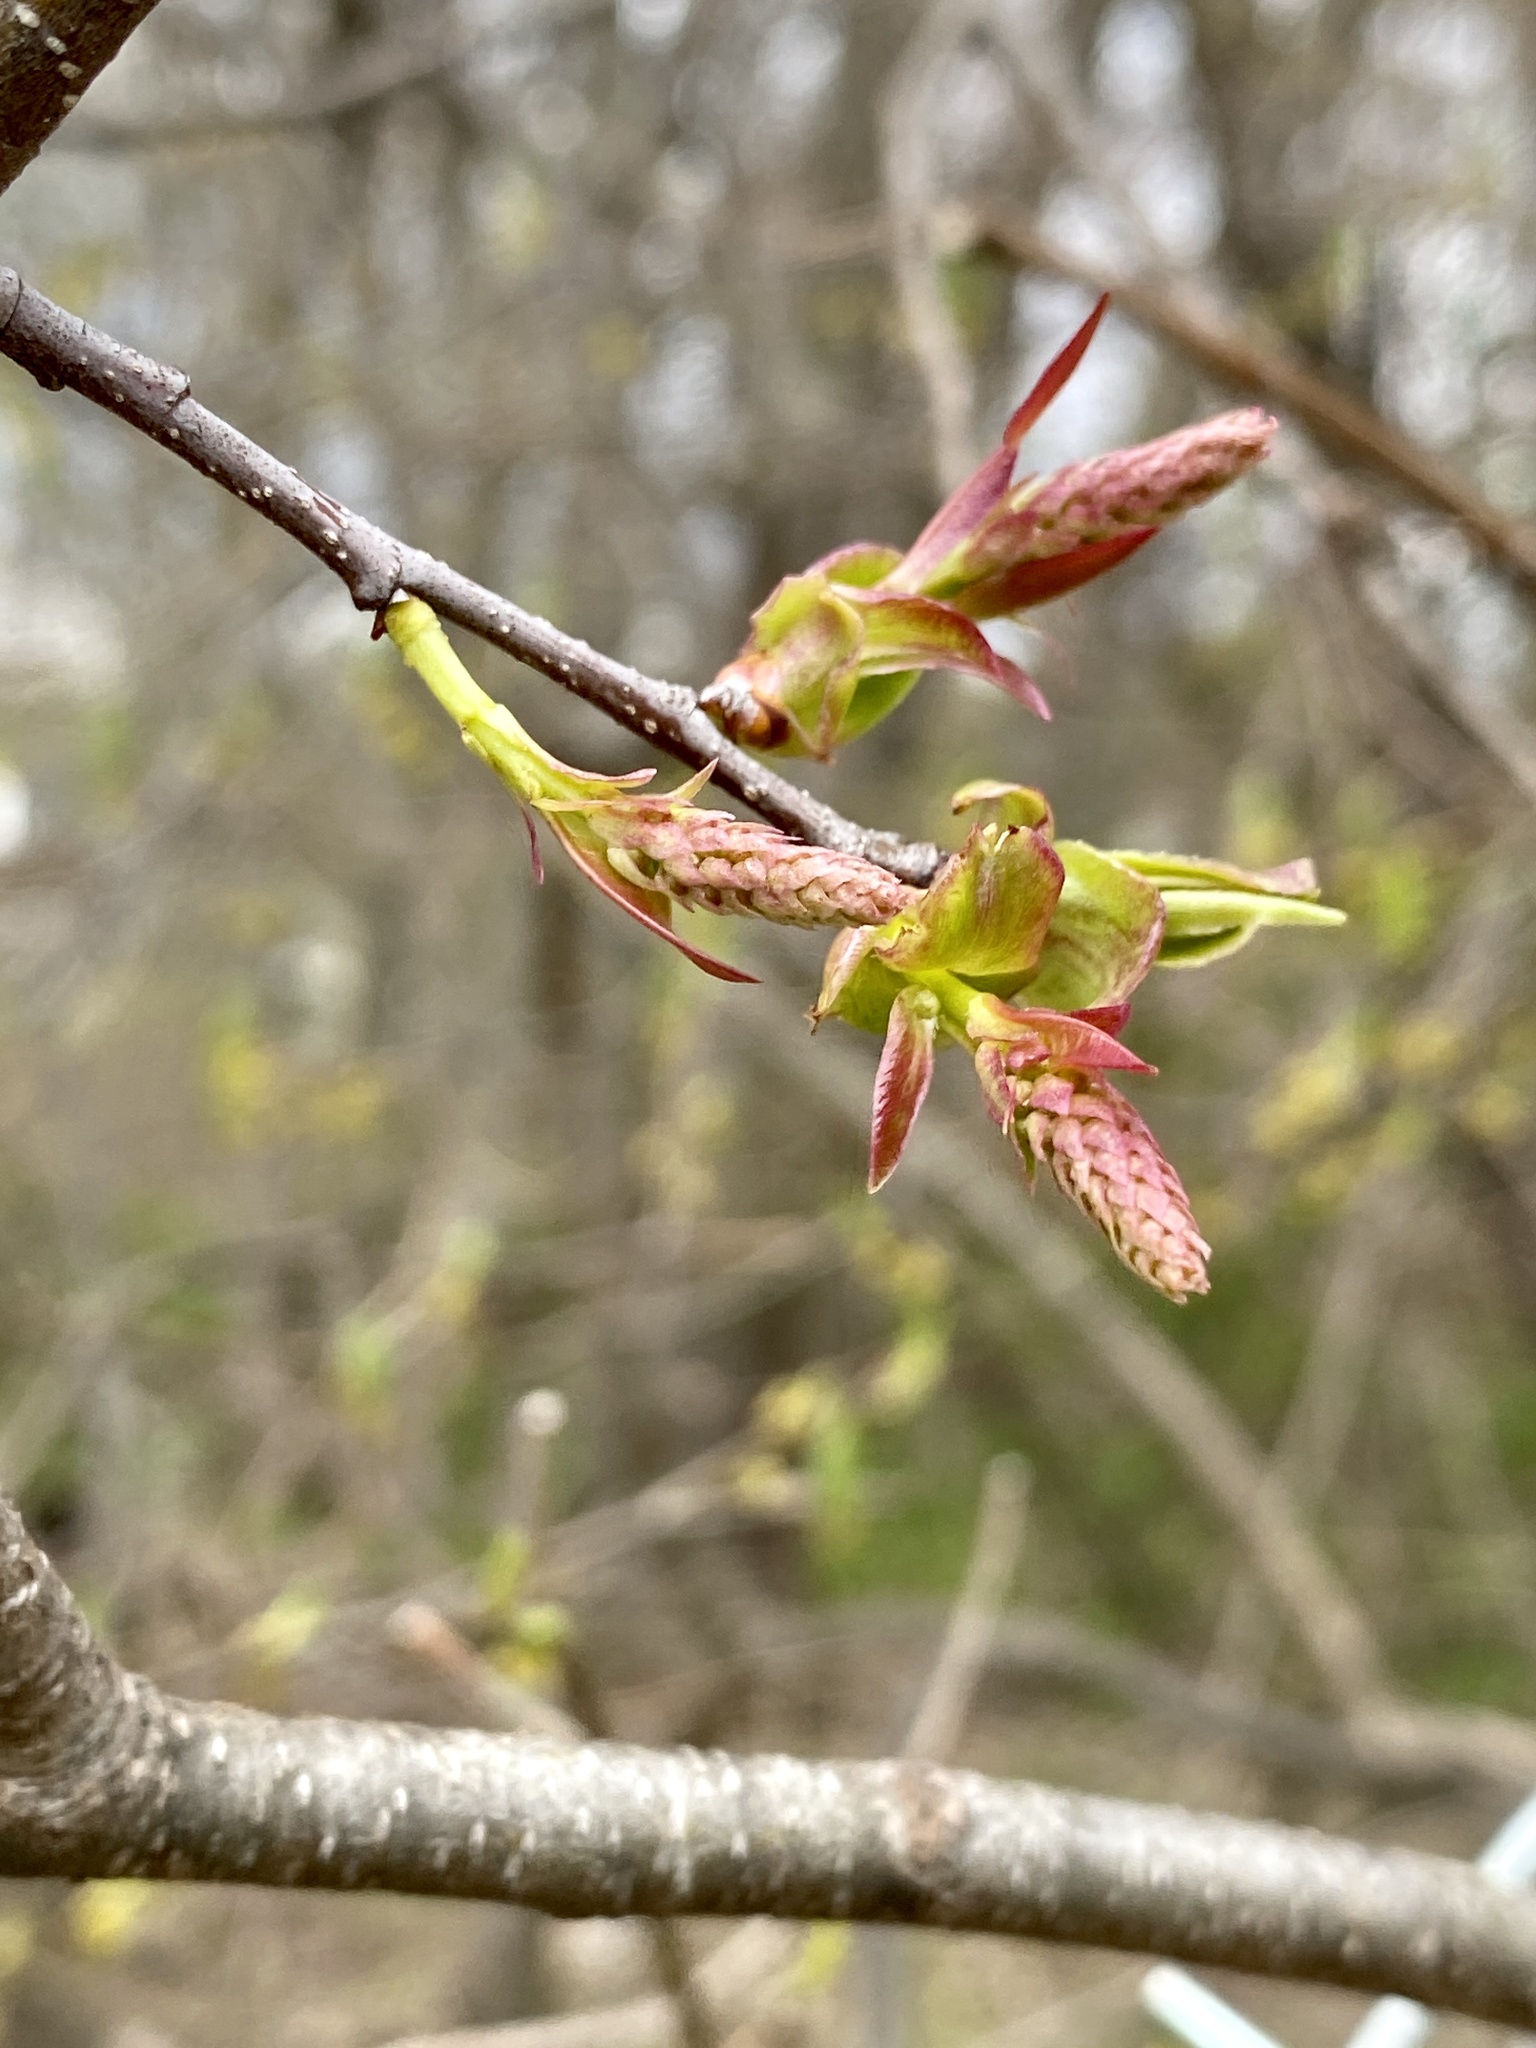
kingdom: Plantae
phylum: Tracheophyta
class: Magnoliopsida
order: Rosales
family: Rosaceae
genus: Prunus
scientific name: Prunus serotina
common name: Black cherry
